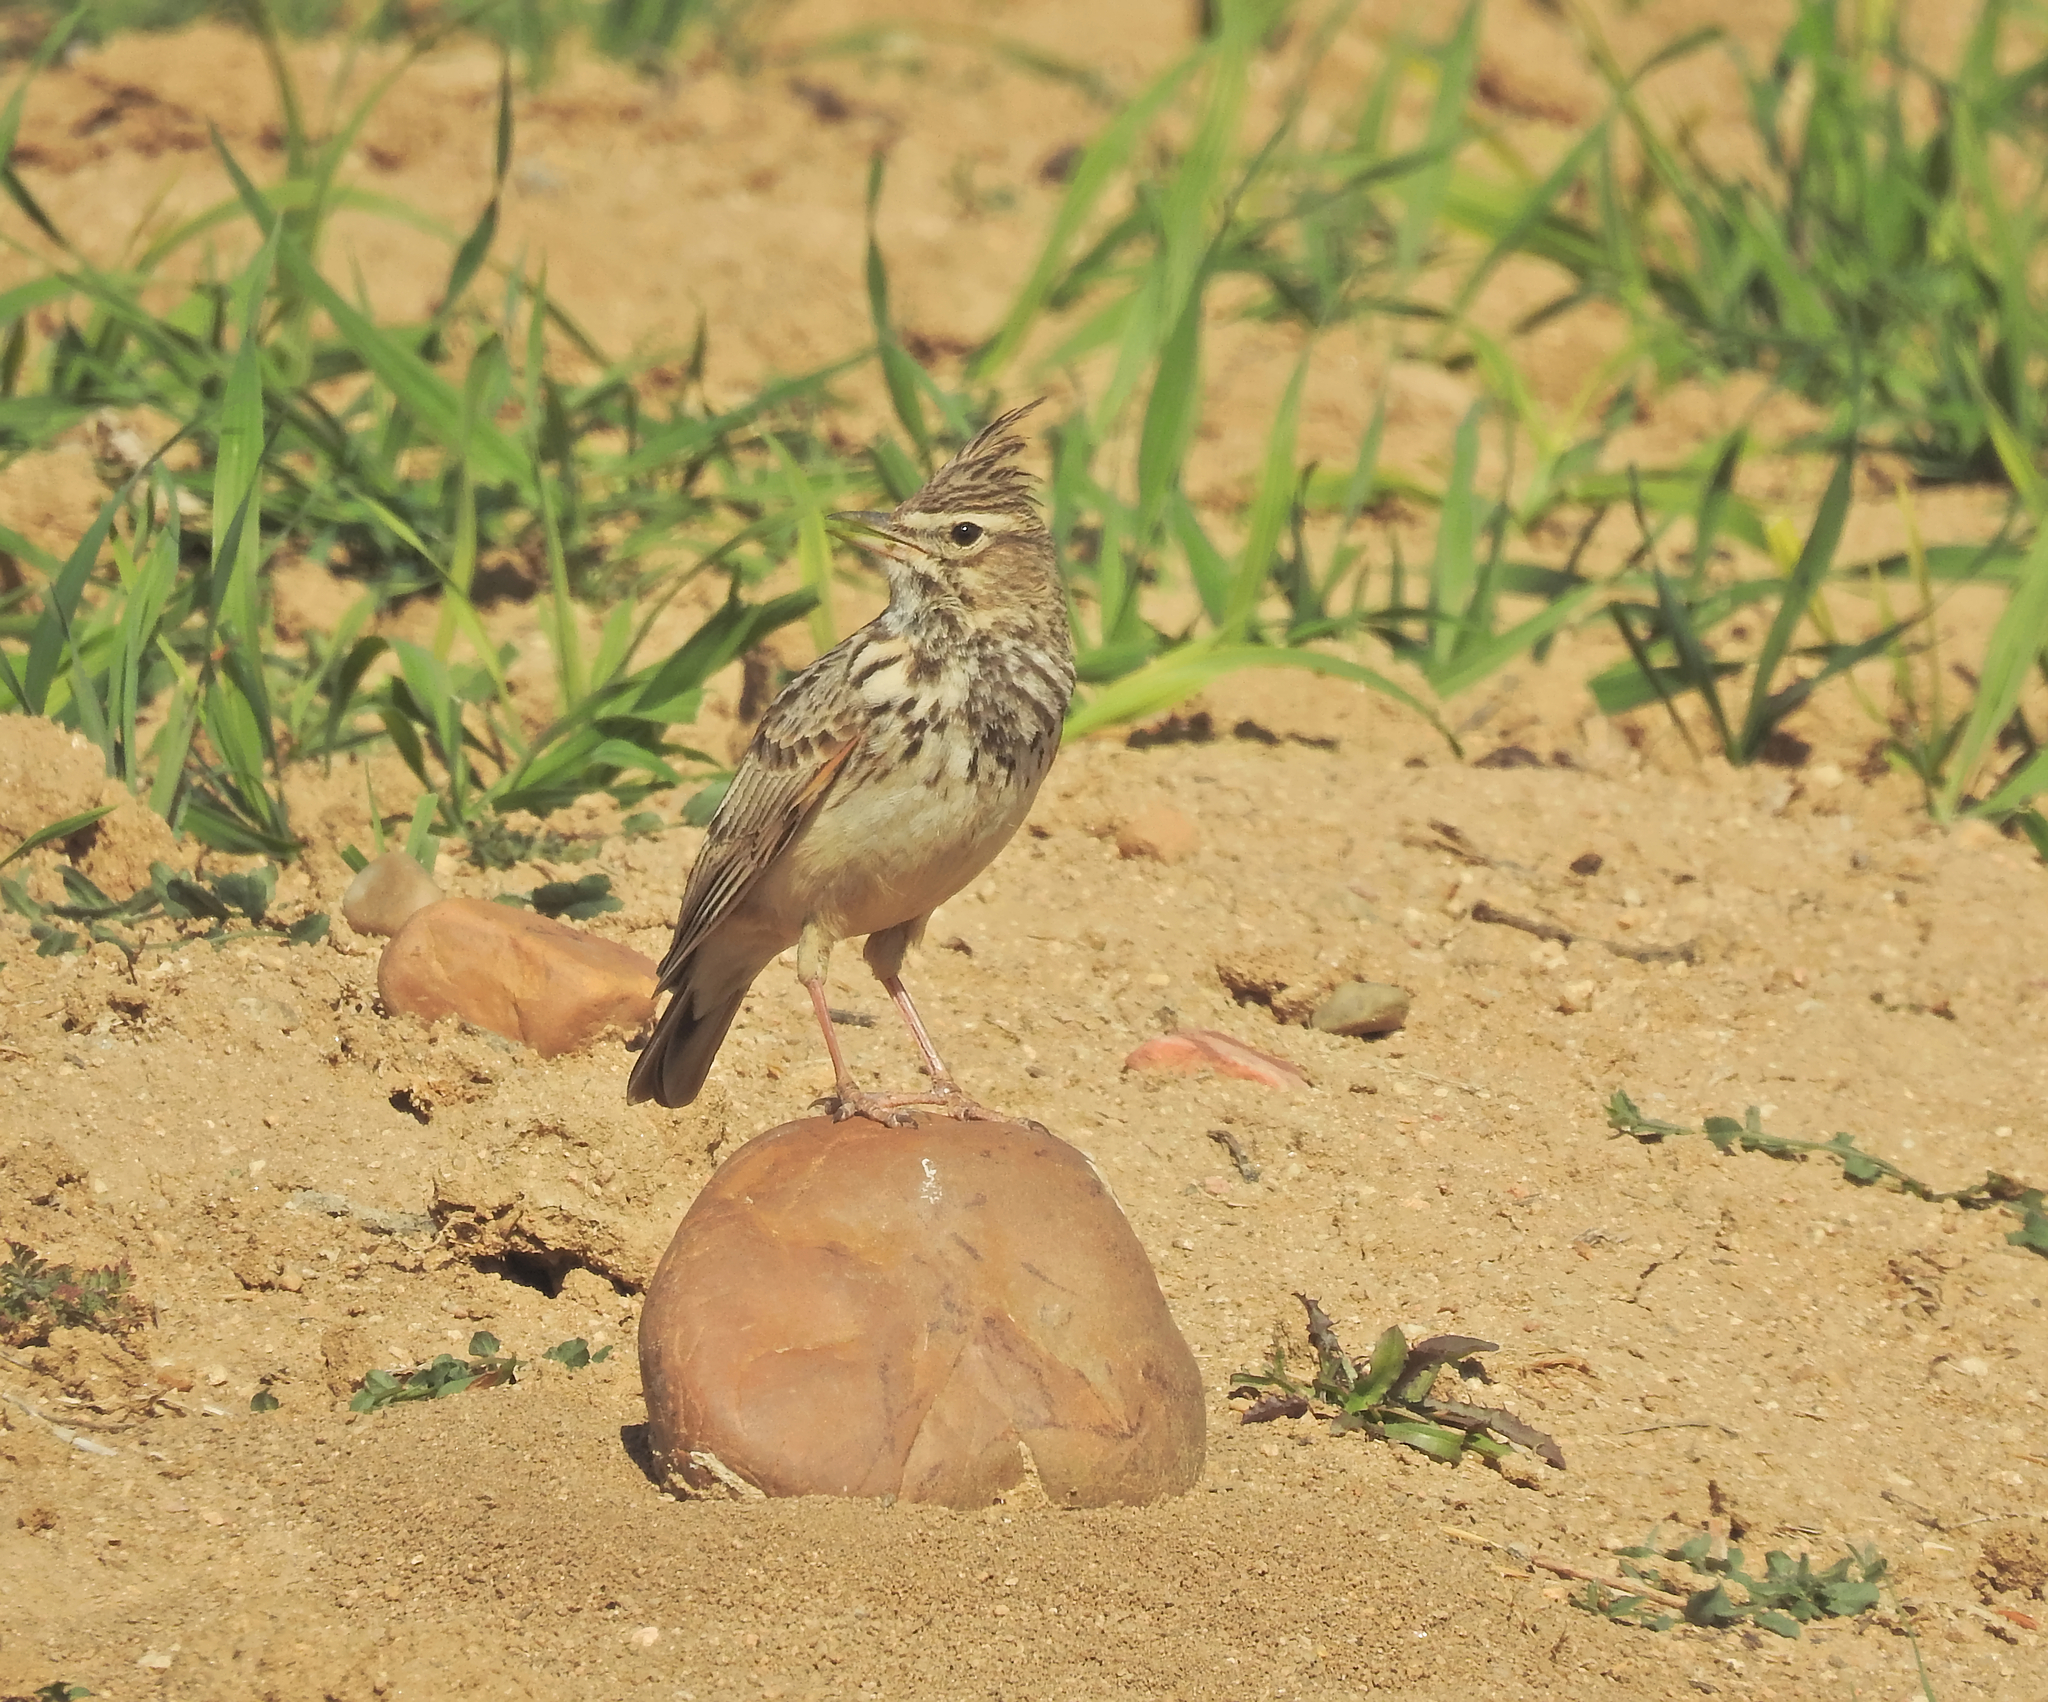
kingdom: Animalia
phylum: Chordata
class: Aves
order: Passeriformes
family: Alaudidae
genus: Galerida
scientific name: Galerida theklae
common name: Thekla lark
